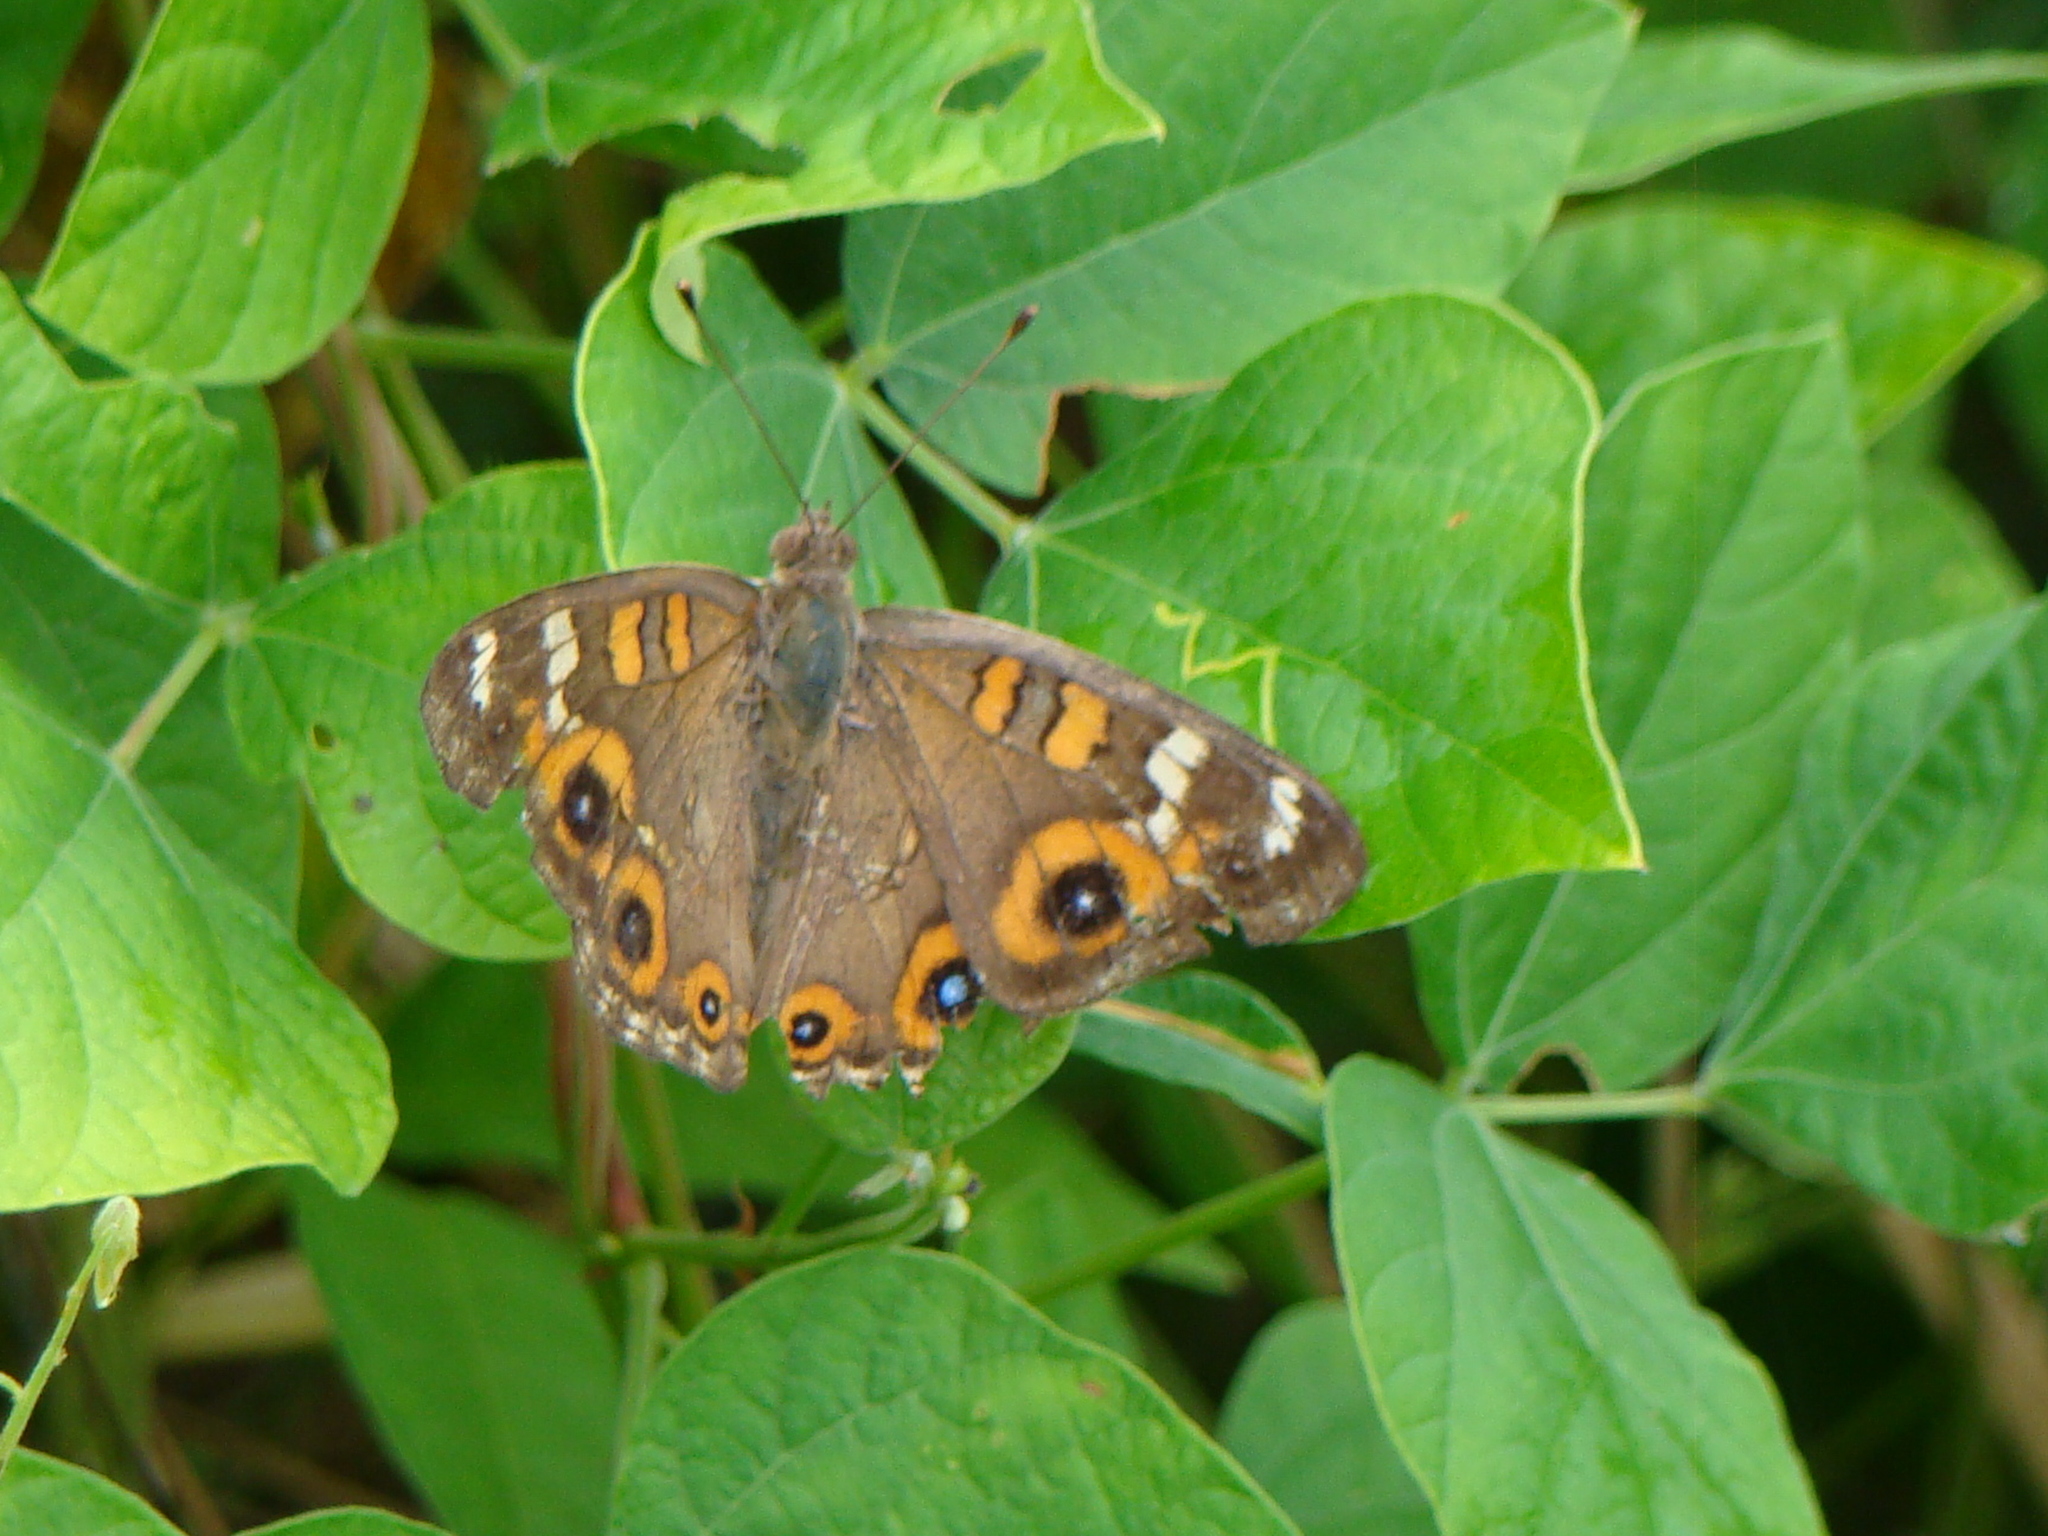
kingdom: Animalia
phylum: Arthropoda
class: Insecta
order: Lepidoptera
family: Nymphalidae
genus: Junonia
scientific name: Junonia villida
